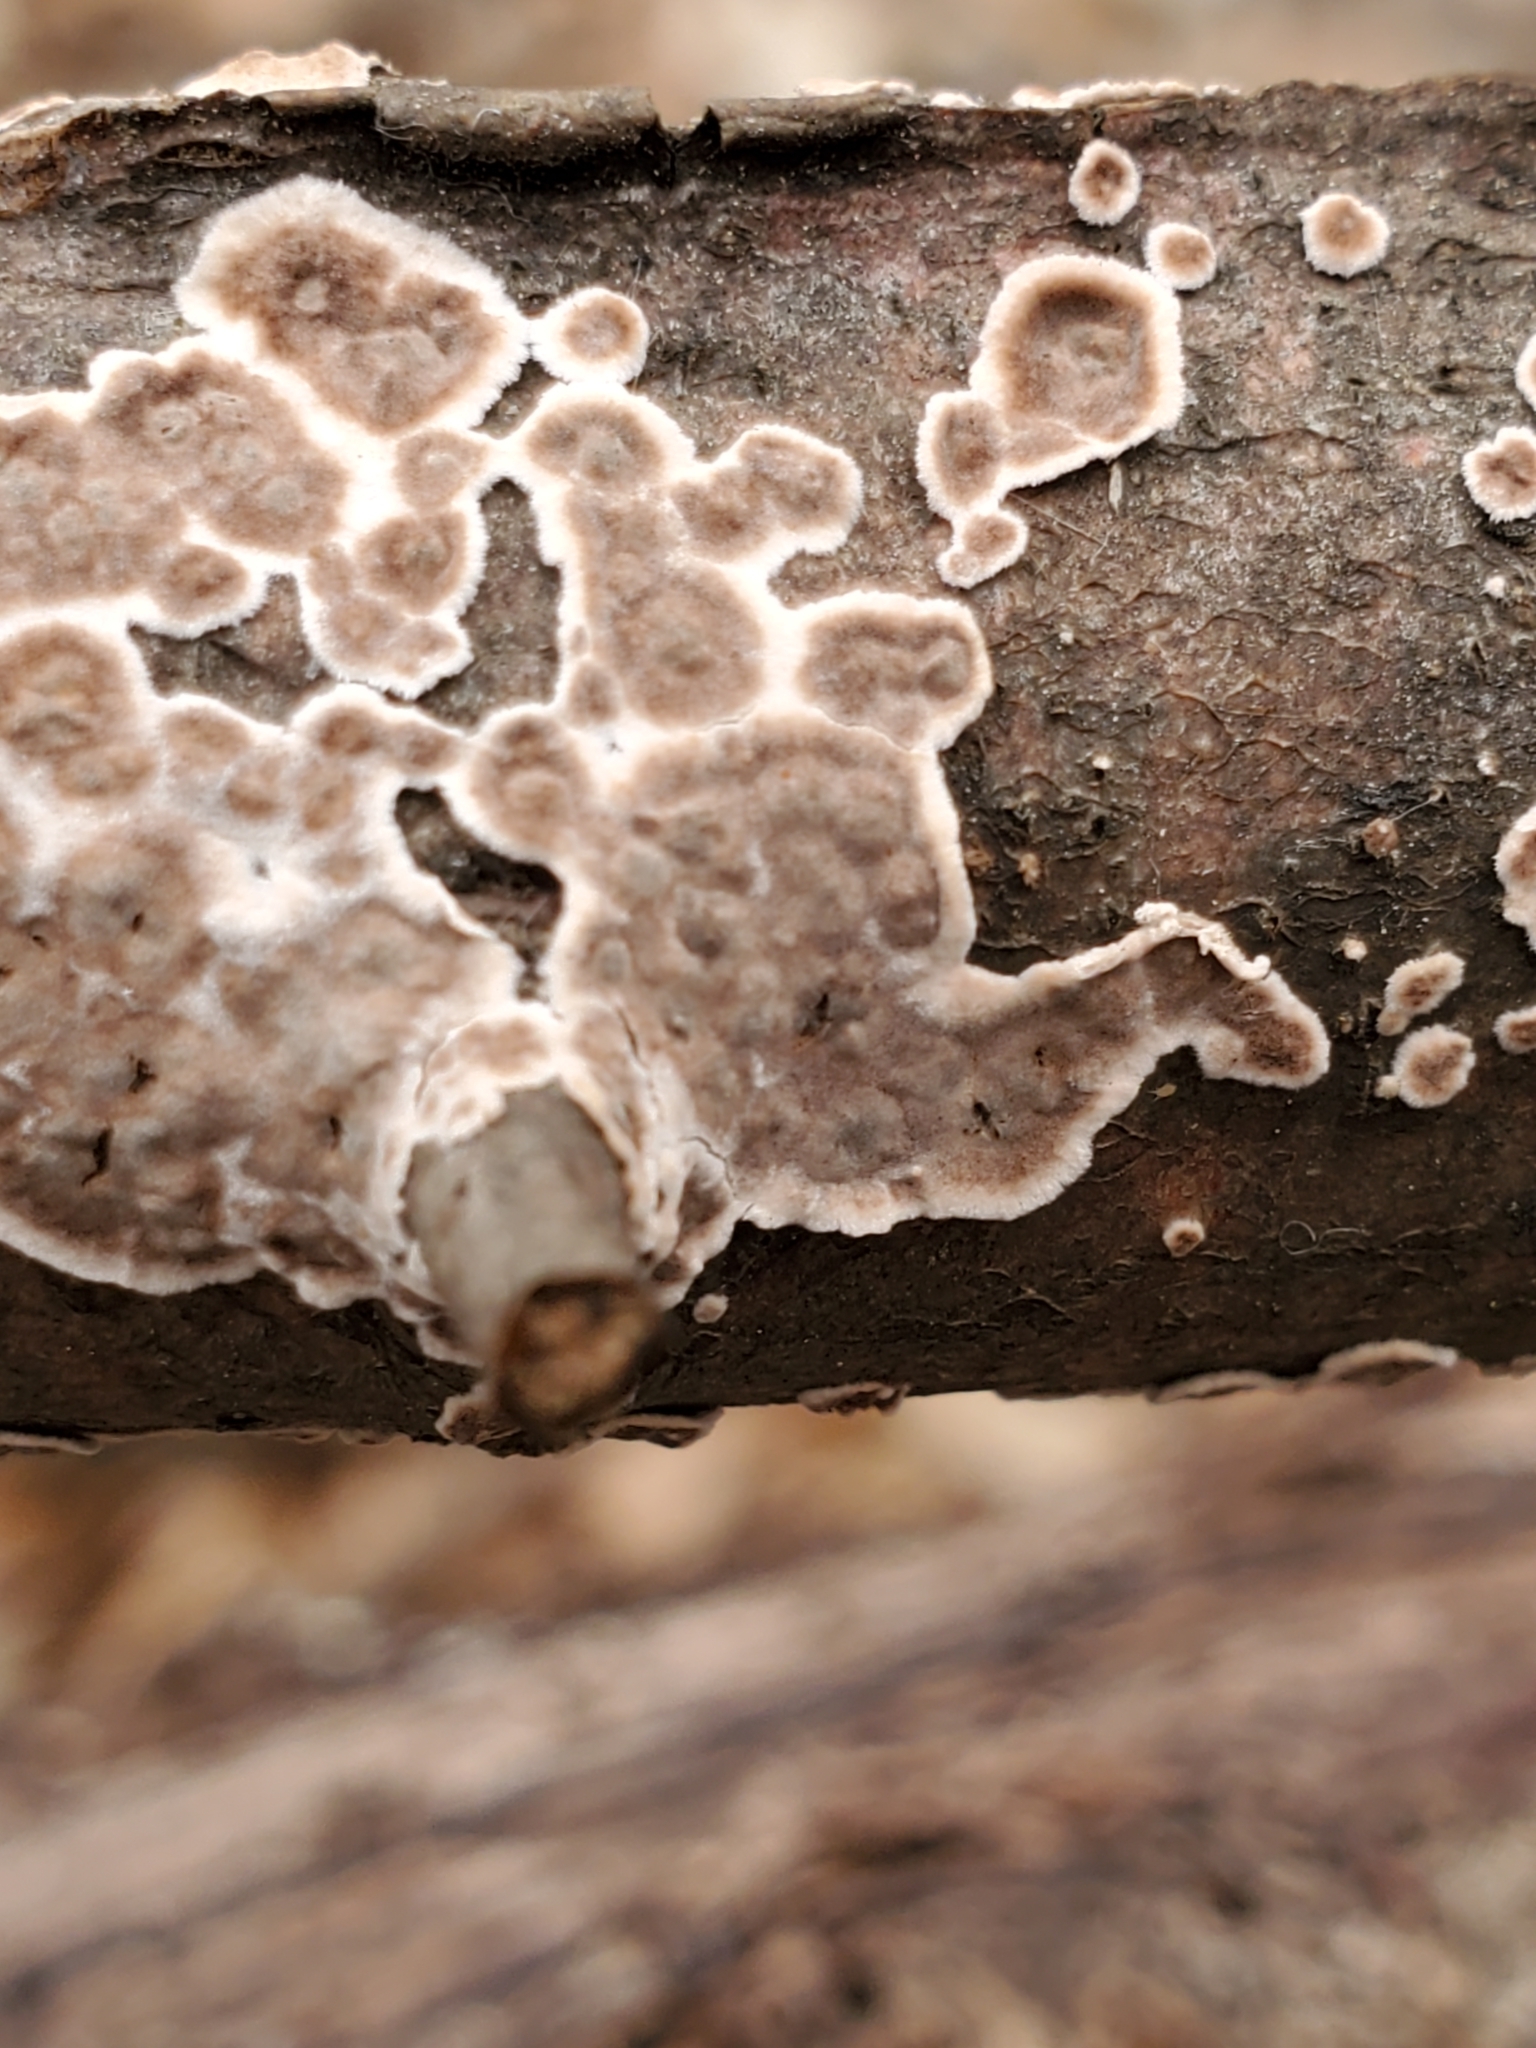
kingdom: Fungi
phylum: Basidiomycota
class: Agaricomycetes
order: Russulales
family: Peniophoraceae
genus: Peniophora
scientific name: Peniophora albobadia
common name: Giraffe spots
